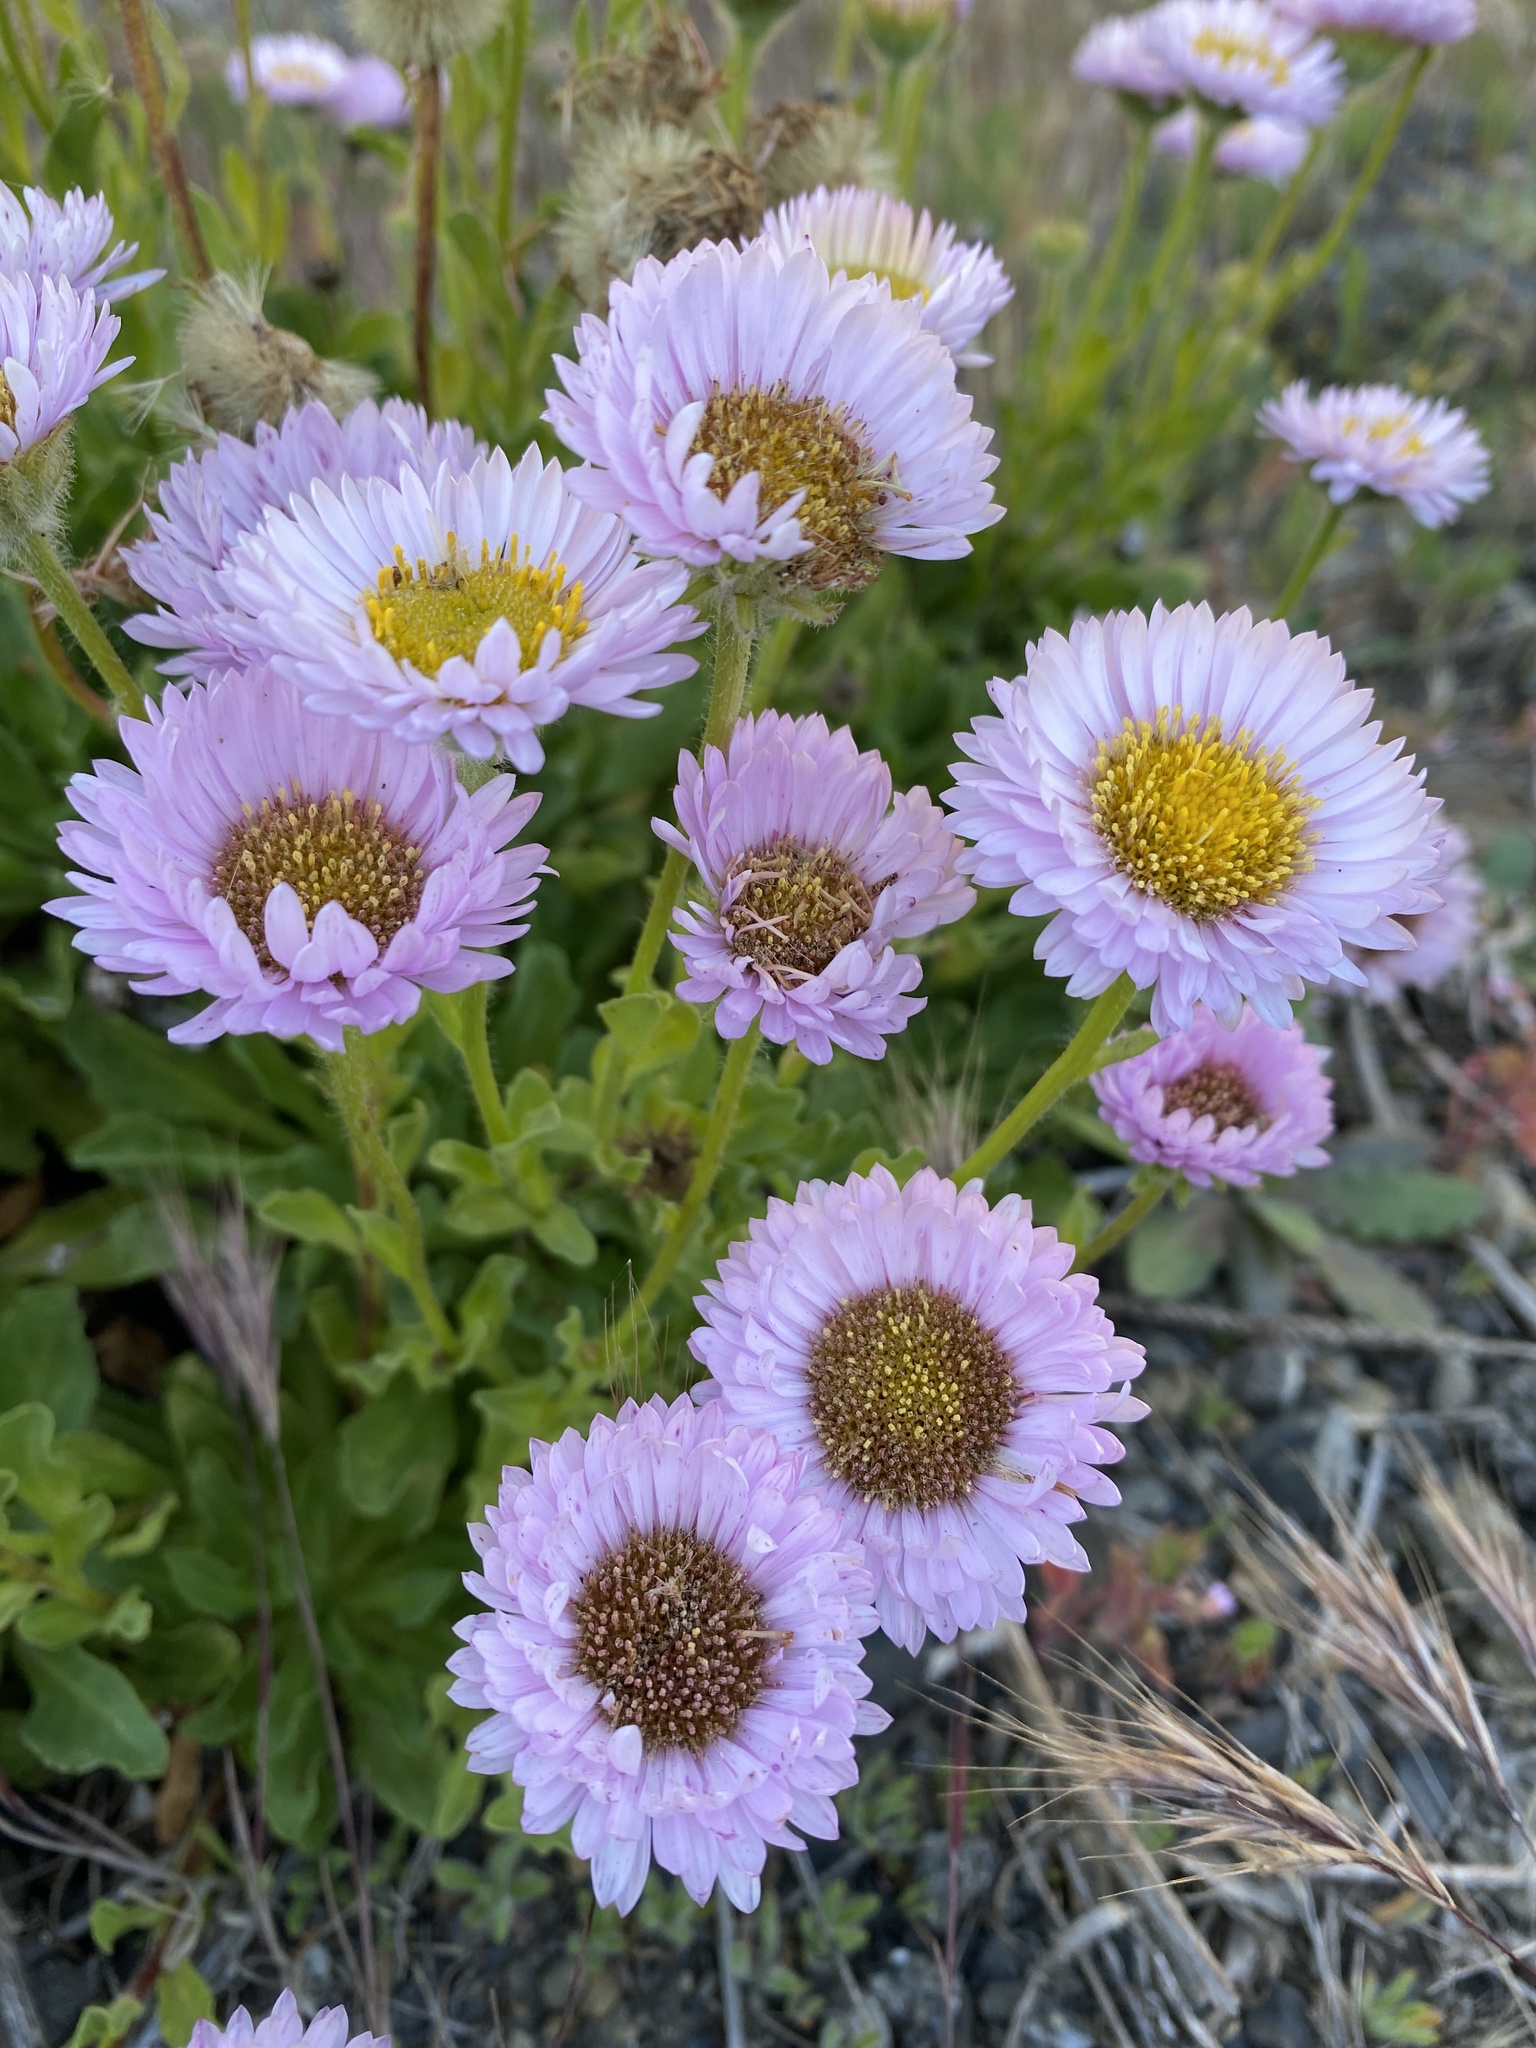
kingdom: Plantae
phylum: Tracheophyta
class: Magnoliopsida
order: Asterales
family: Asteraceae
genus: Erigeron
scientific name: Erigeron glaucus
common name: Seaside daisy
